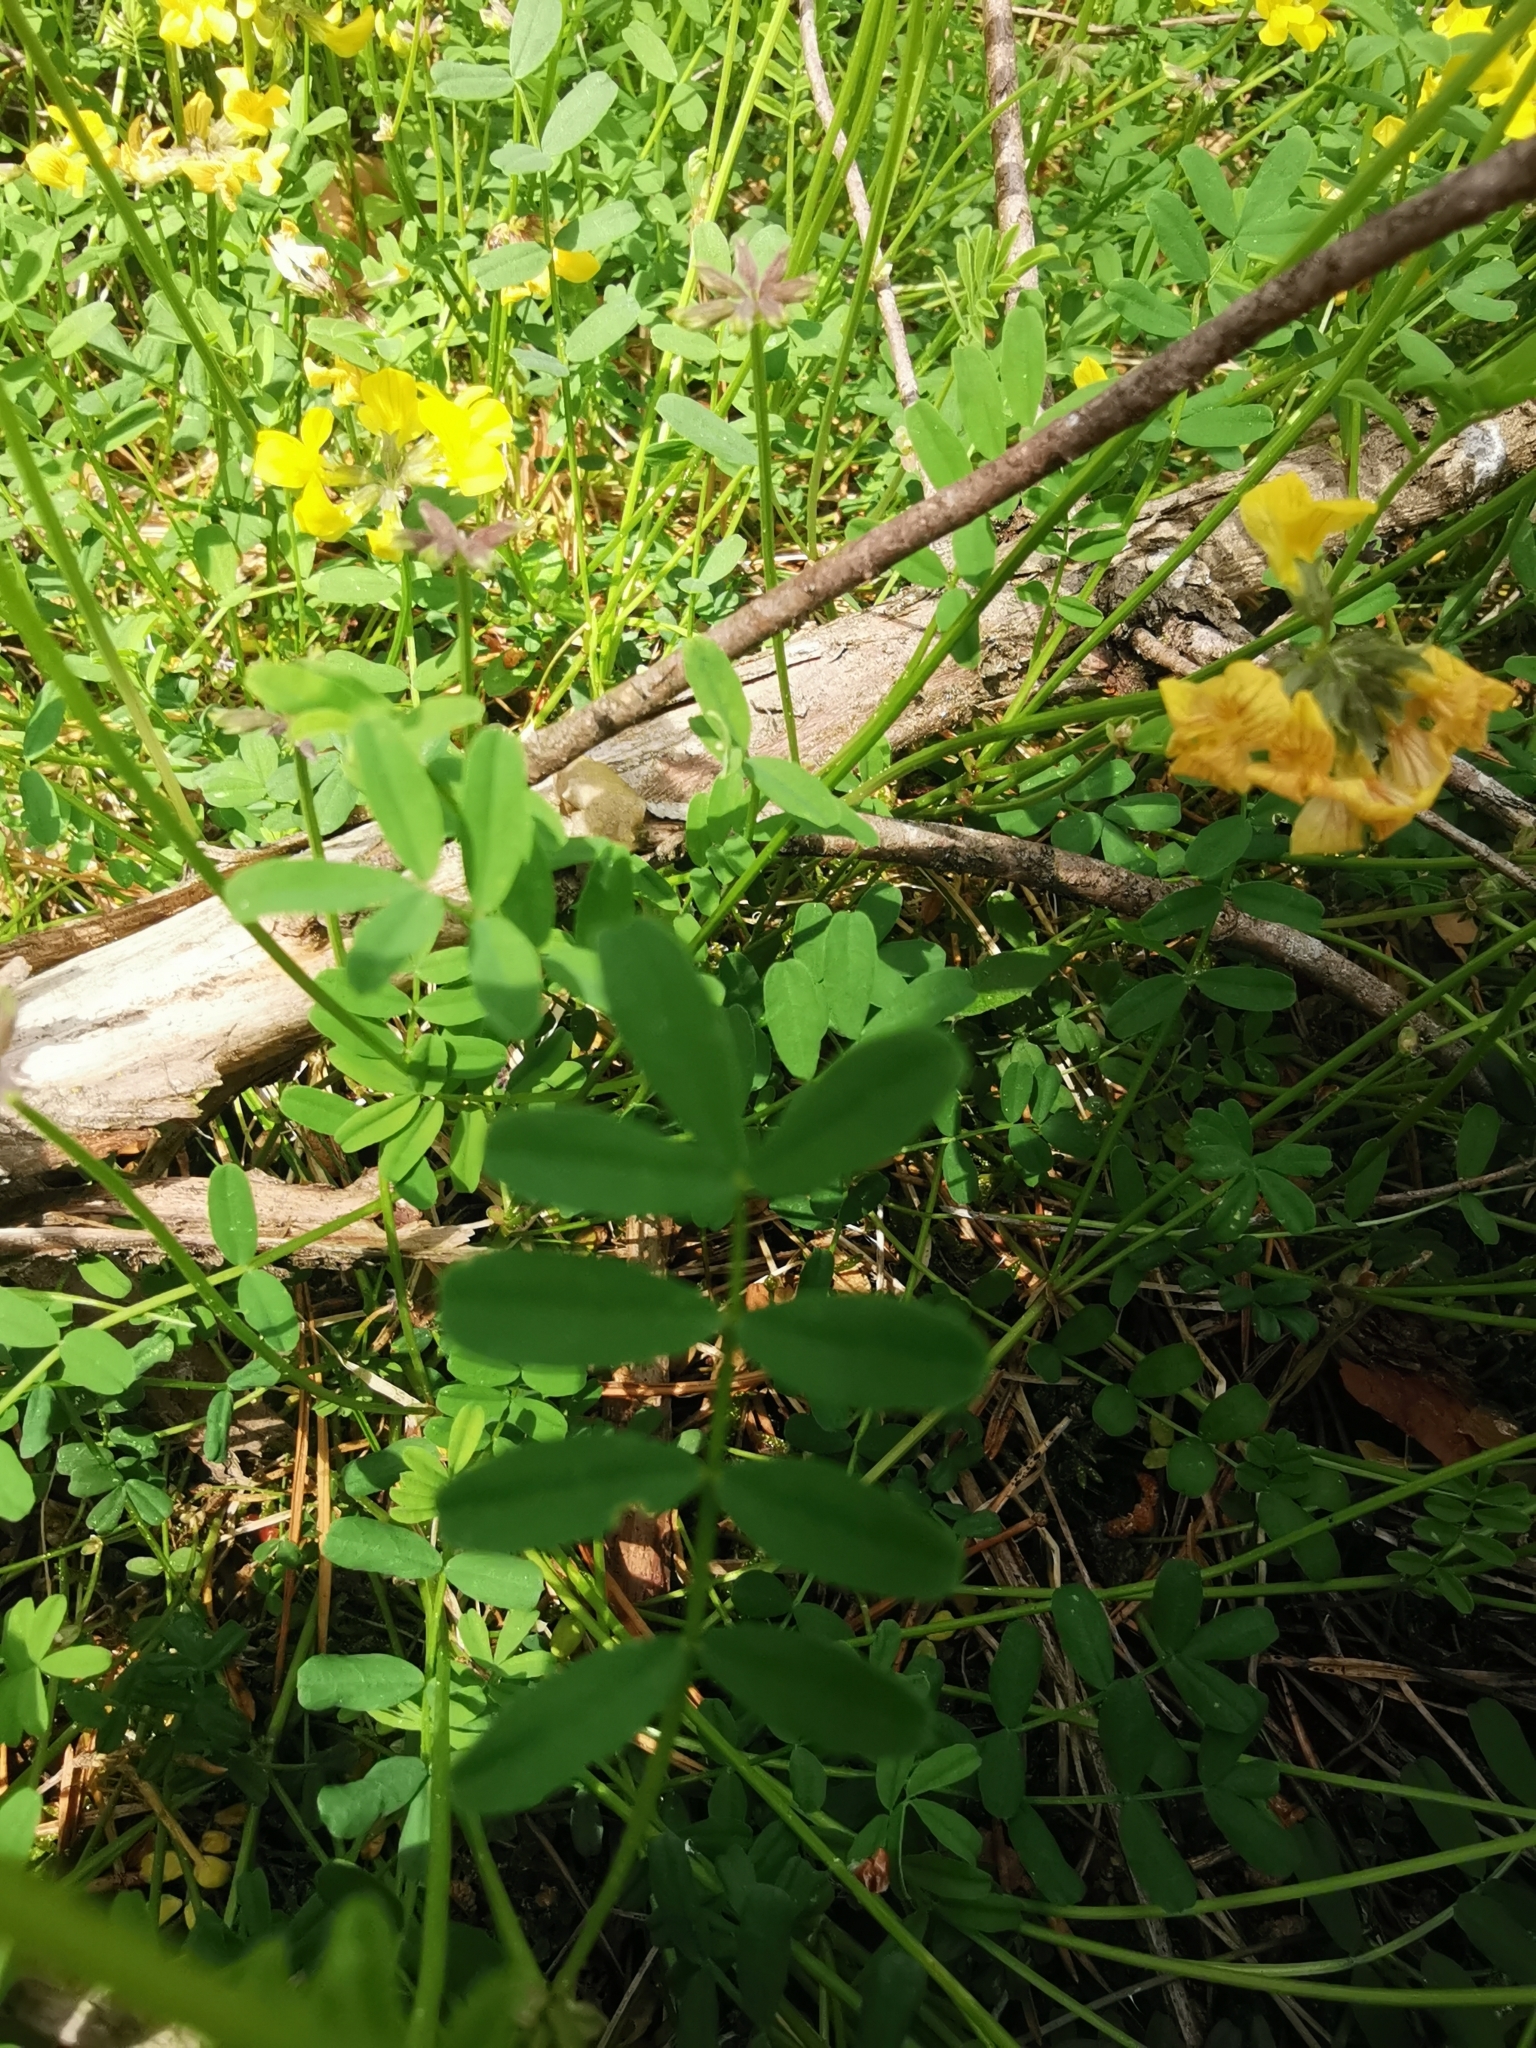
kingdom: Plantae
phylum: Tracheophyta
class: Magnoliopsida
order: Fabales
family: Fabaceae
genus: Hippocrepis
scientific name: Hippocrepis comosa
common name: Horseshoe vetch
